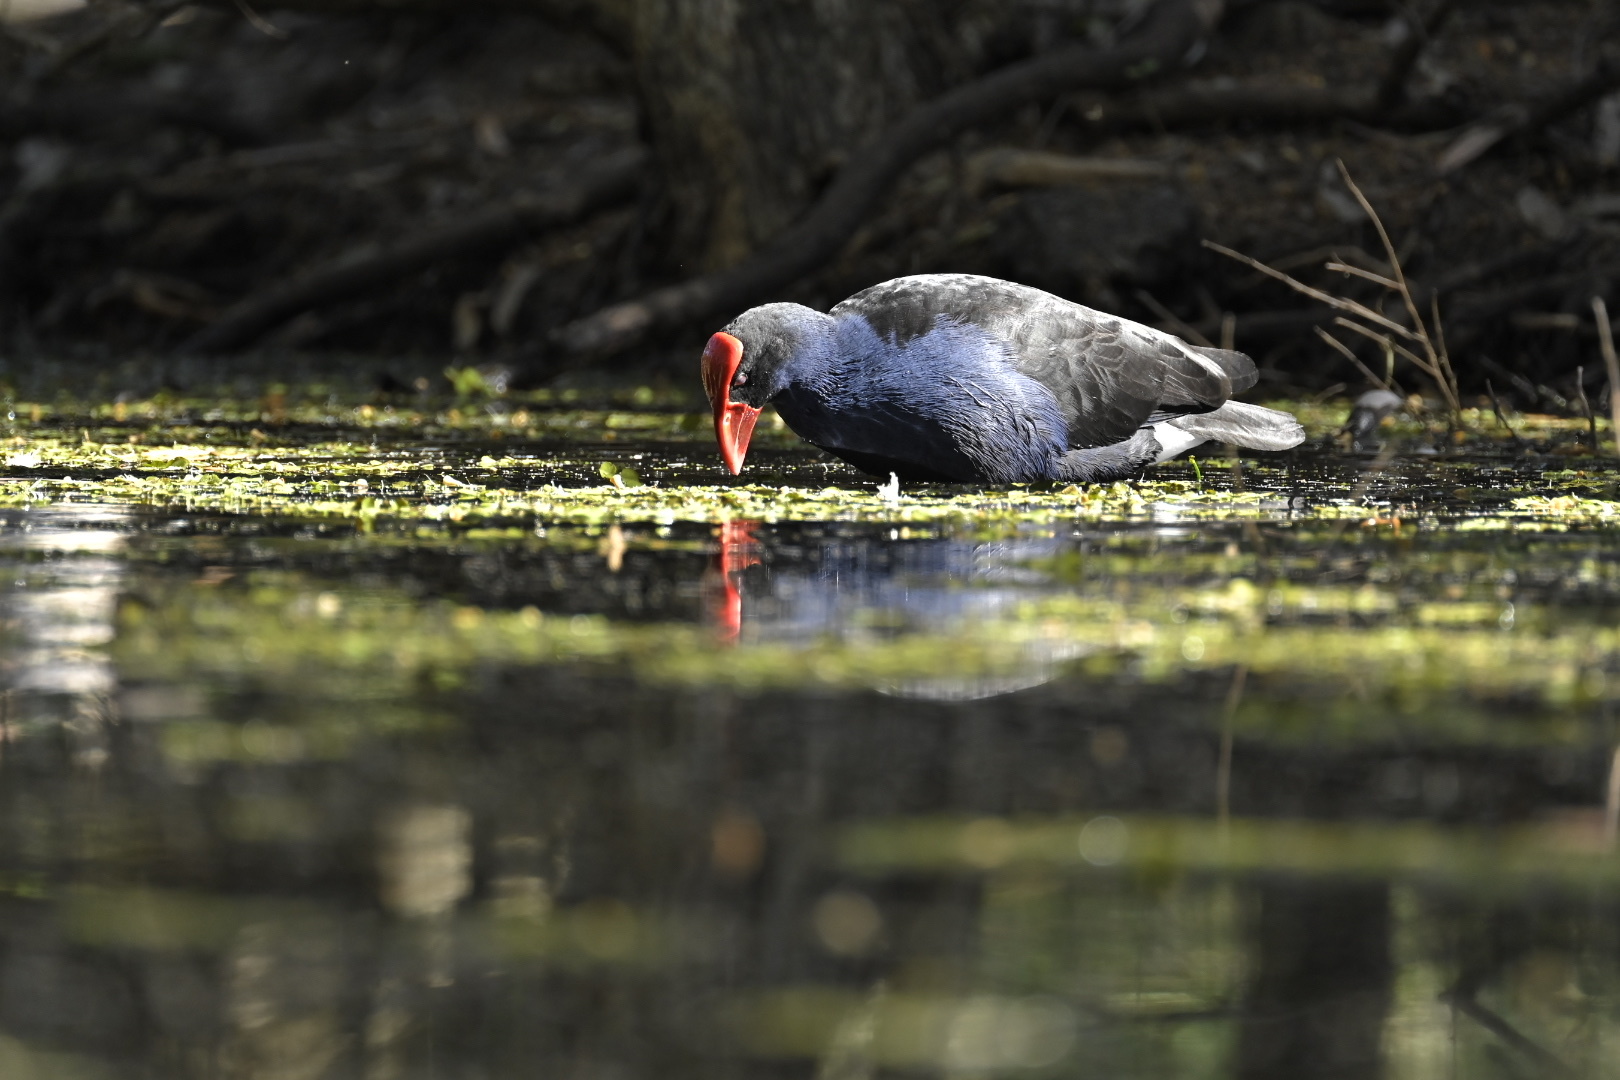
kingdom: Animalia
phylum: Chordata
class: Aves
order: Gruiformes
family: Rallidae
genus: Porphyrio
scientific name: Porphyrio melanotus
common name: Australasian swamphen
